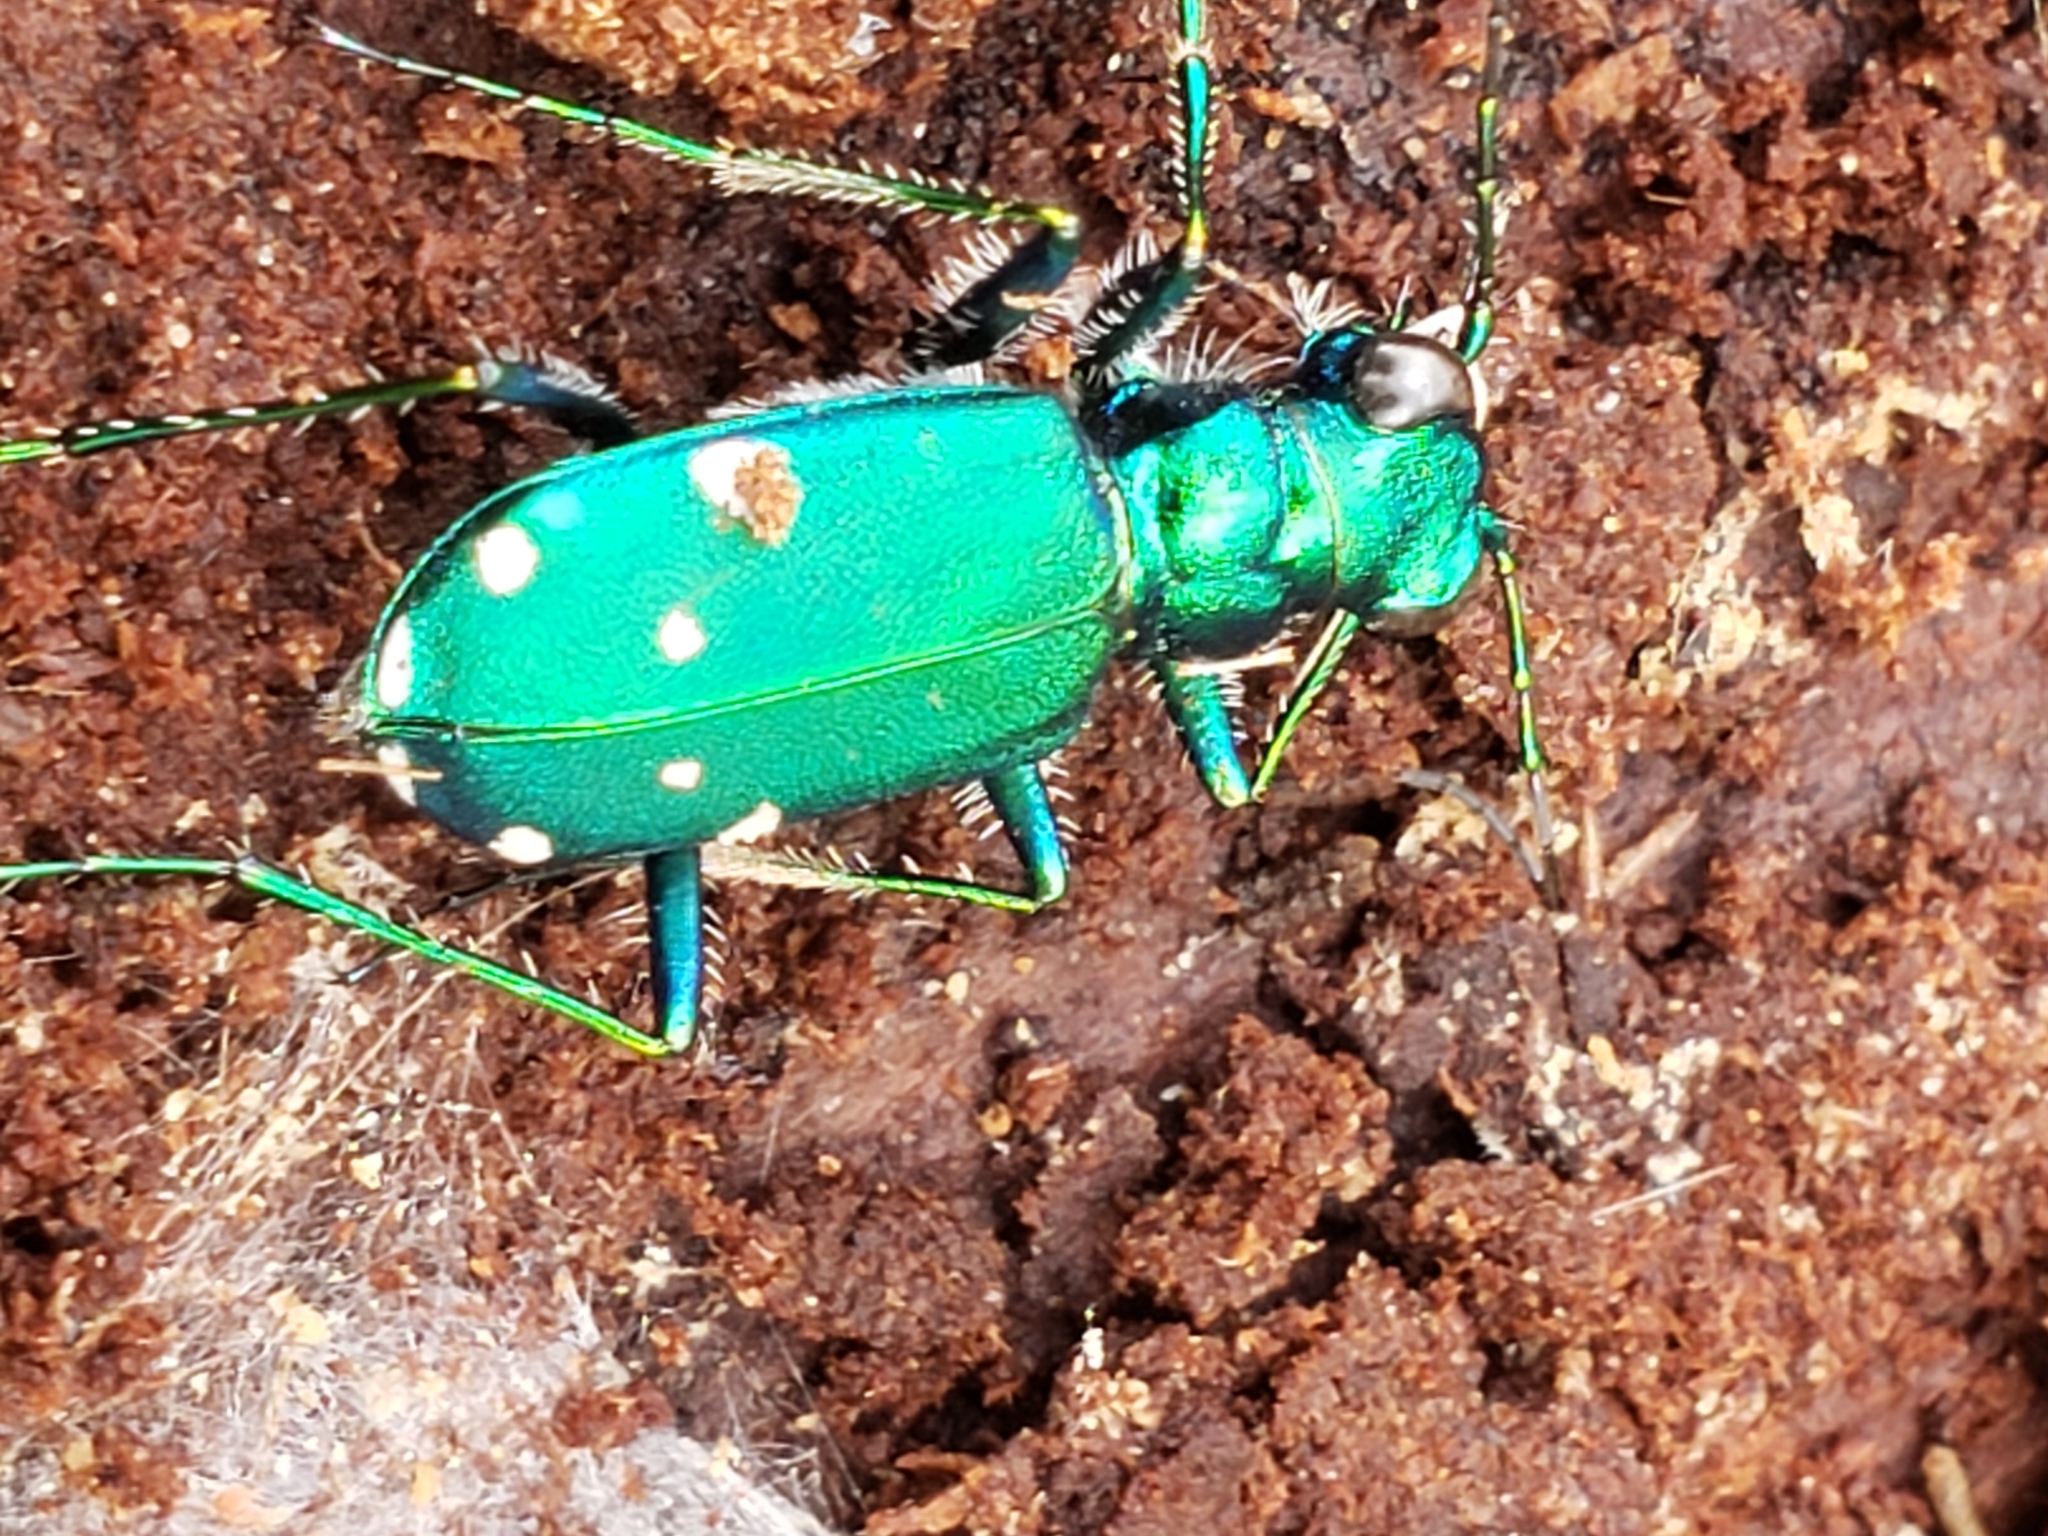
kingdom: Animalia
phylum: Arthropoda
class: Insecta
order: Coleoptera
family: Carabidae
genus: Cicindela
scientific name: Cicindela sexguttata
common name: Six-spotted tiger beetle
